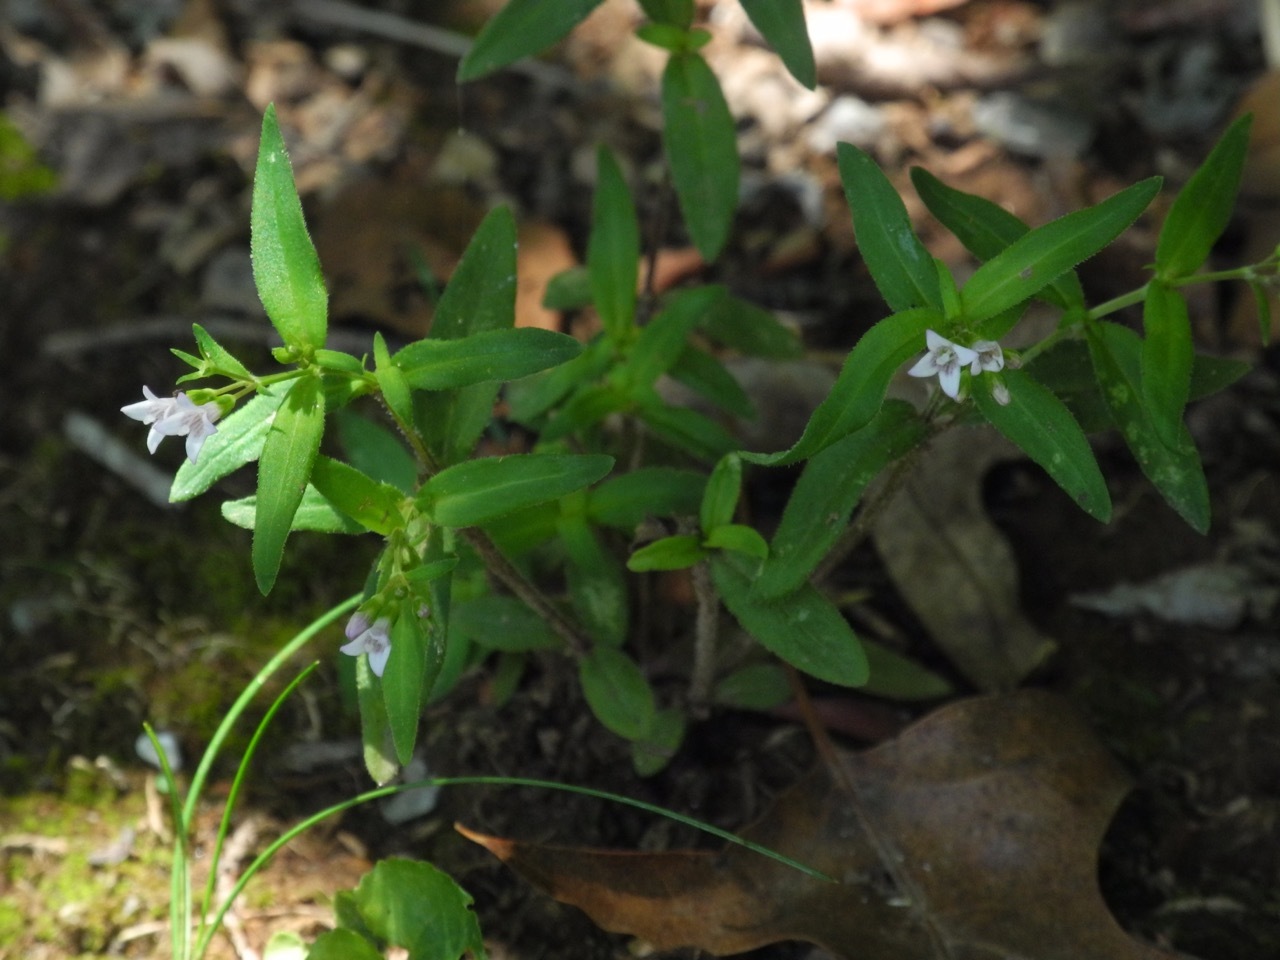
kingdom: Plantae
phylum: Tracheophyta
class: Magnoliopsida
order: Gentianales
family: Rubiaceae
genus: Houstonia
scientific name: Houstonia longifolia
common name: Long-leaved bluets
